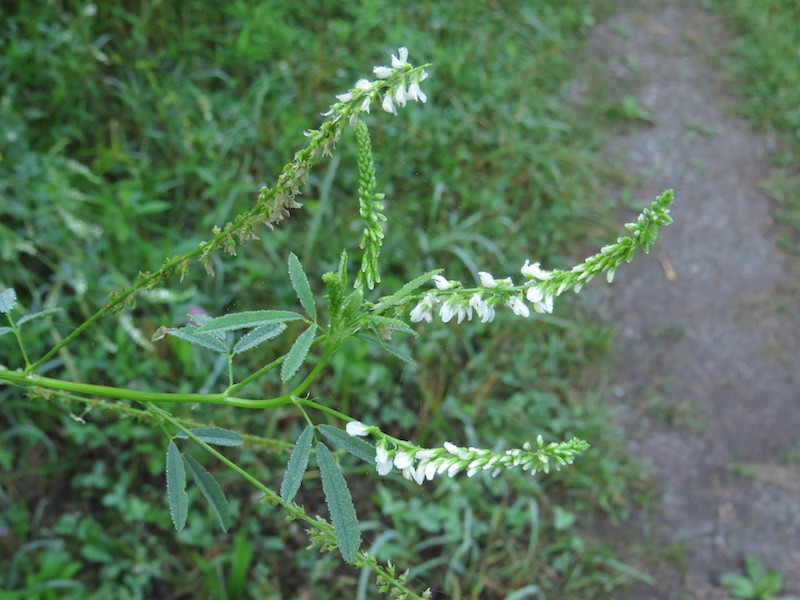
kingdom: Plantae
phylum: Tracheophyta
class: Magnoliopsida
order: Fabales
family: Fabaceae
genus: Melilotus
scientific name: Melilotus albus
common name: White melilot
